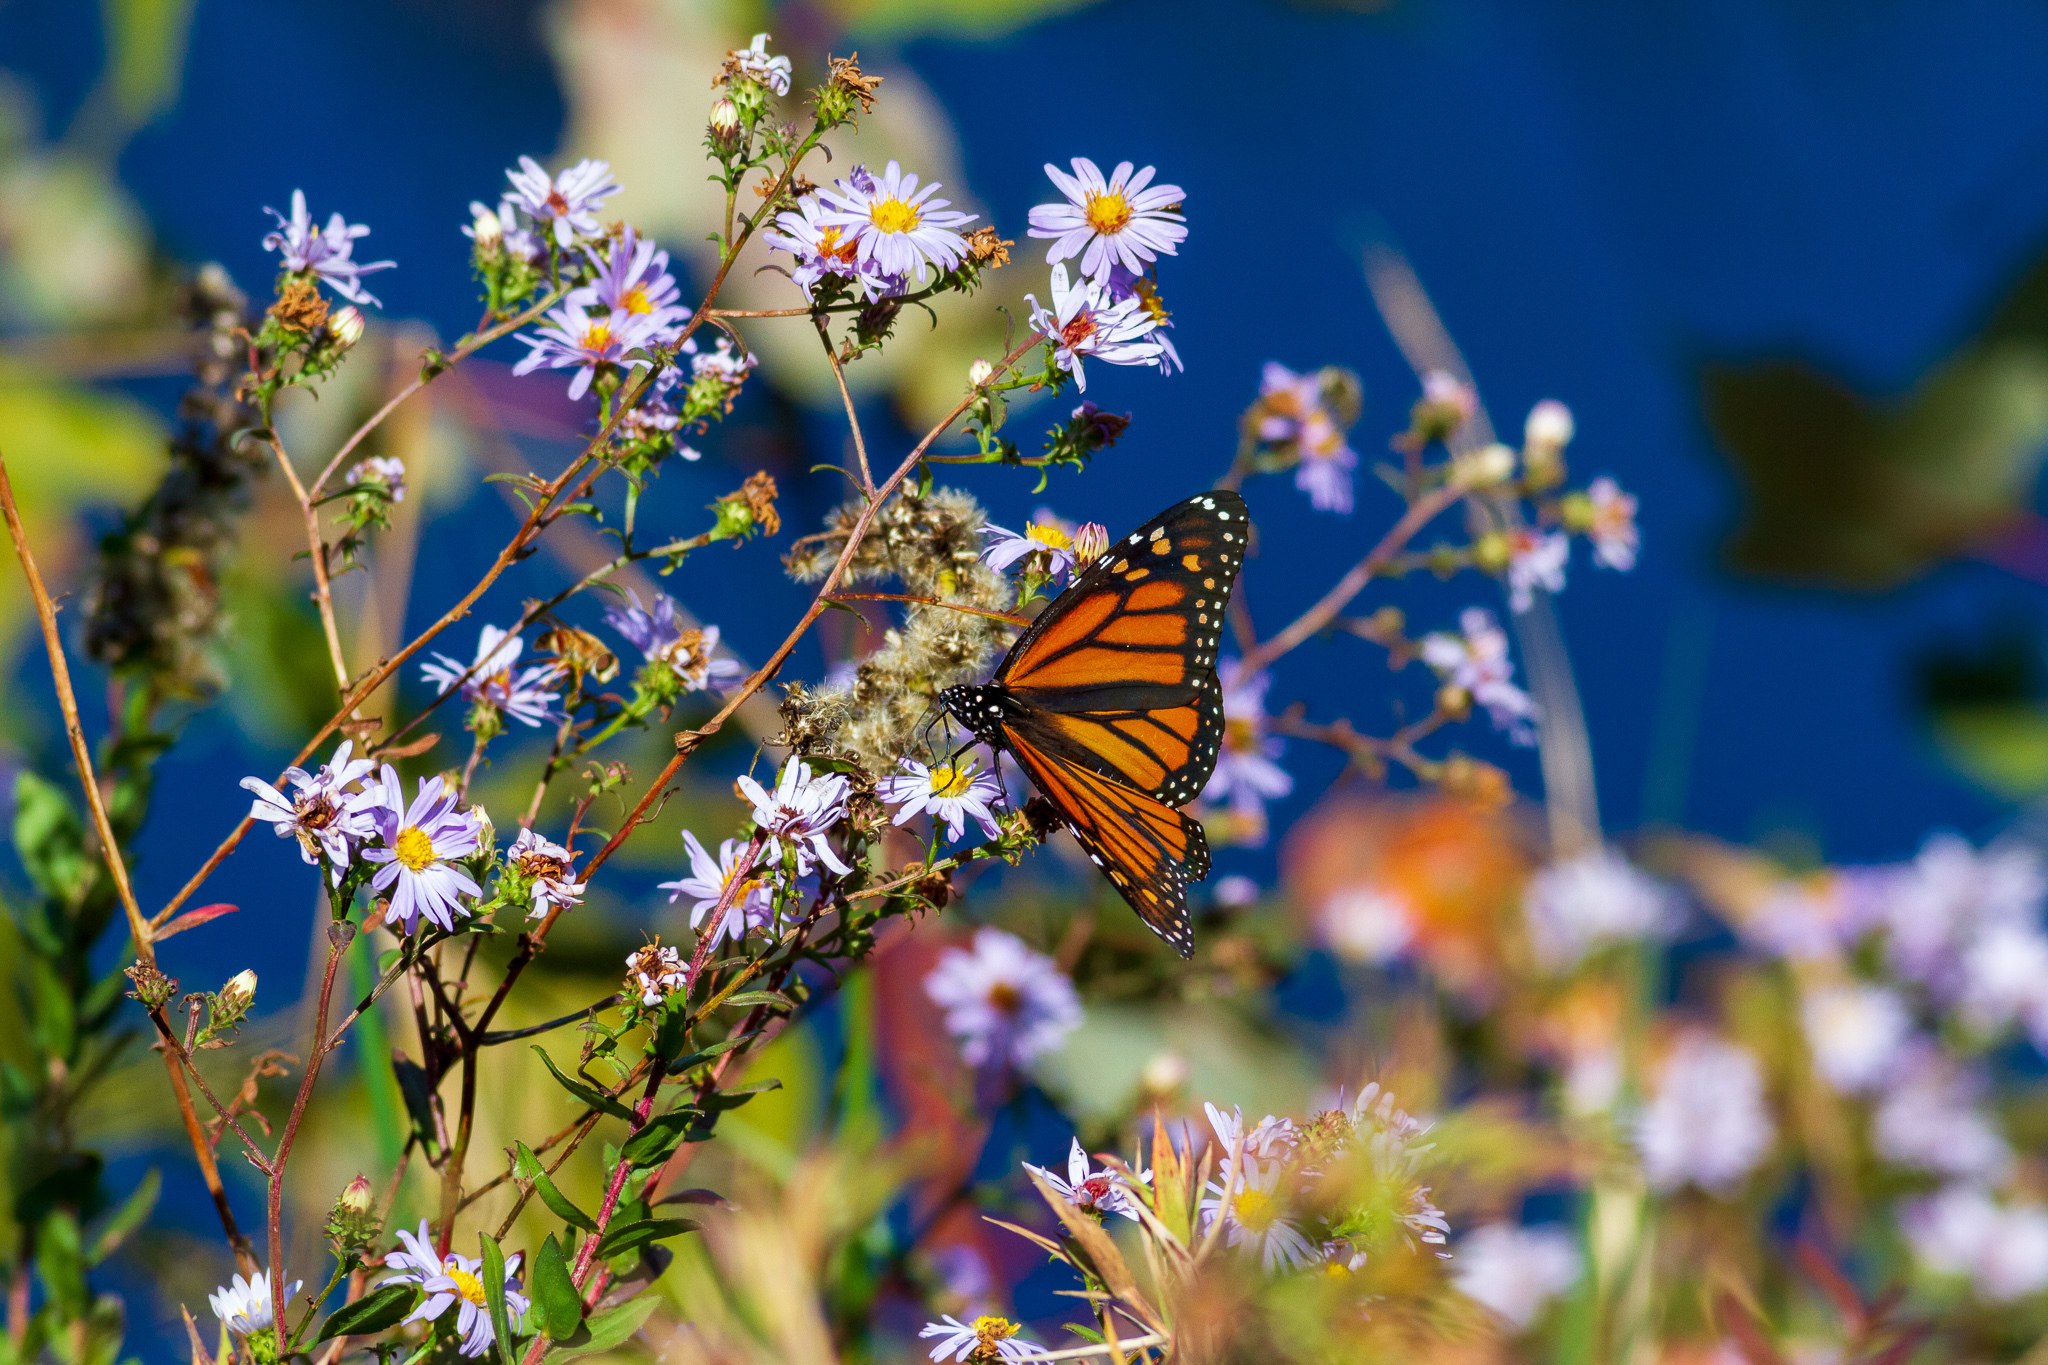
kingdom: Animalia
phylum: Arthropoda
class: Insecta
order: Lepidoptera
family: Nymphalidae
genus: Danaus
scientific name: Danaus plexippus
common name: Monarch
